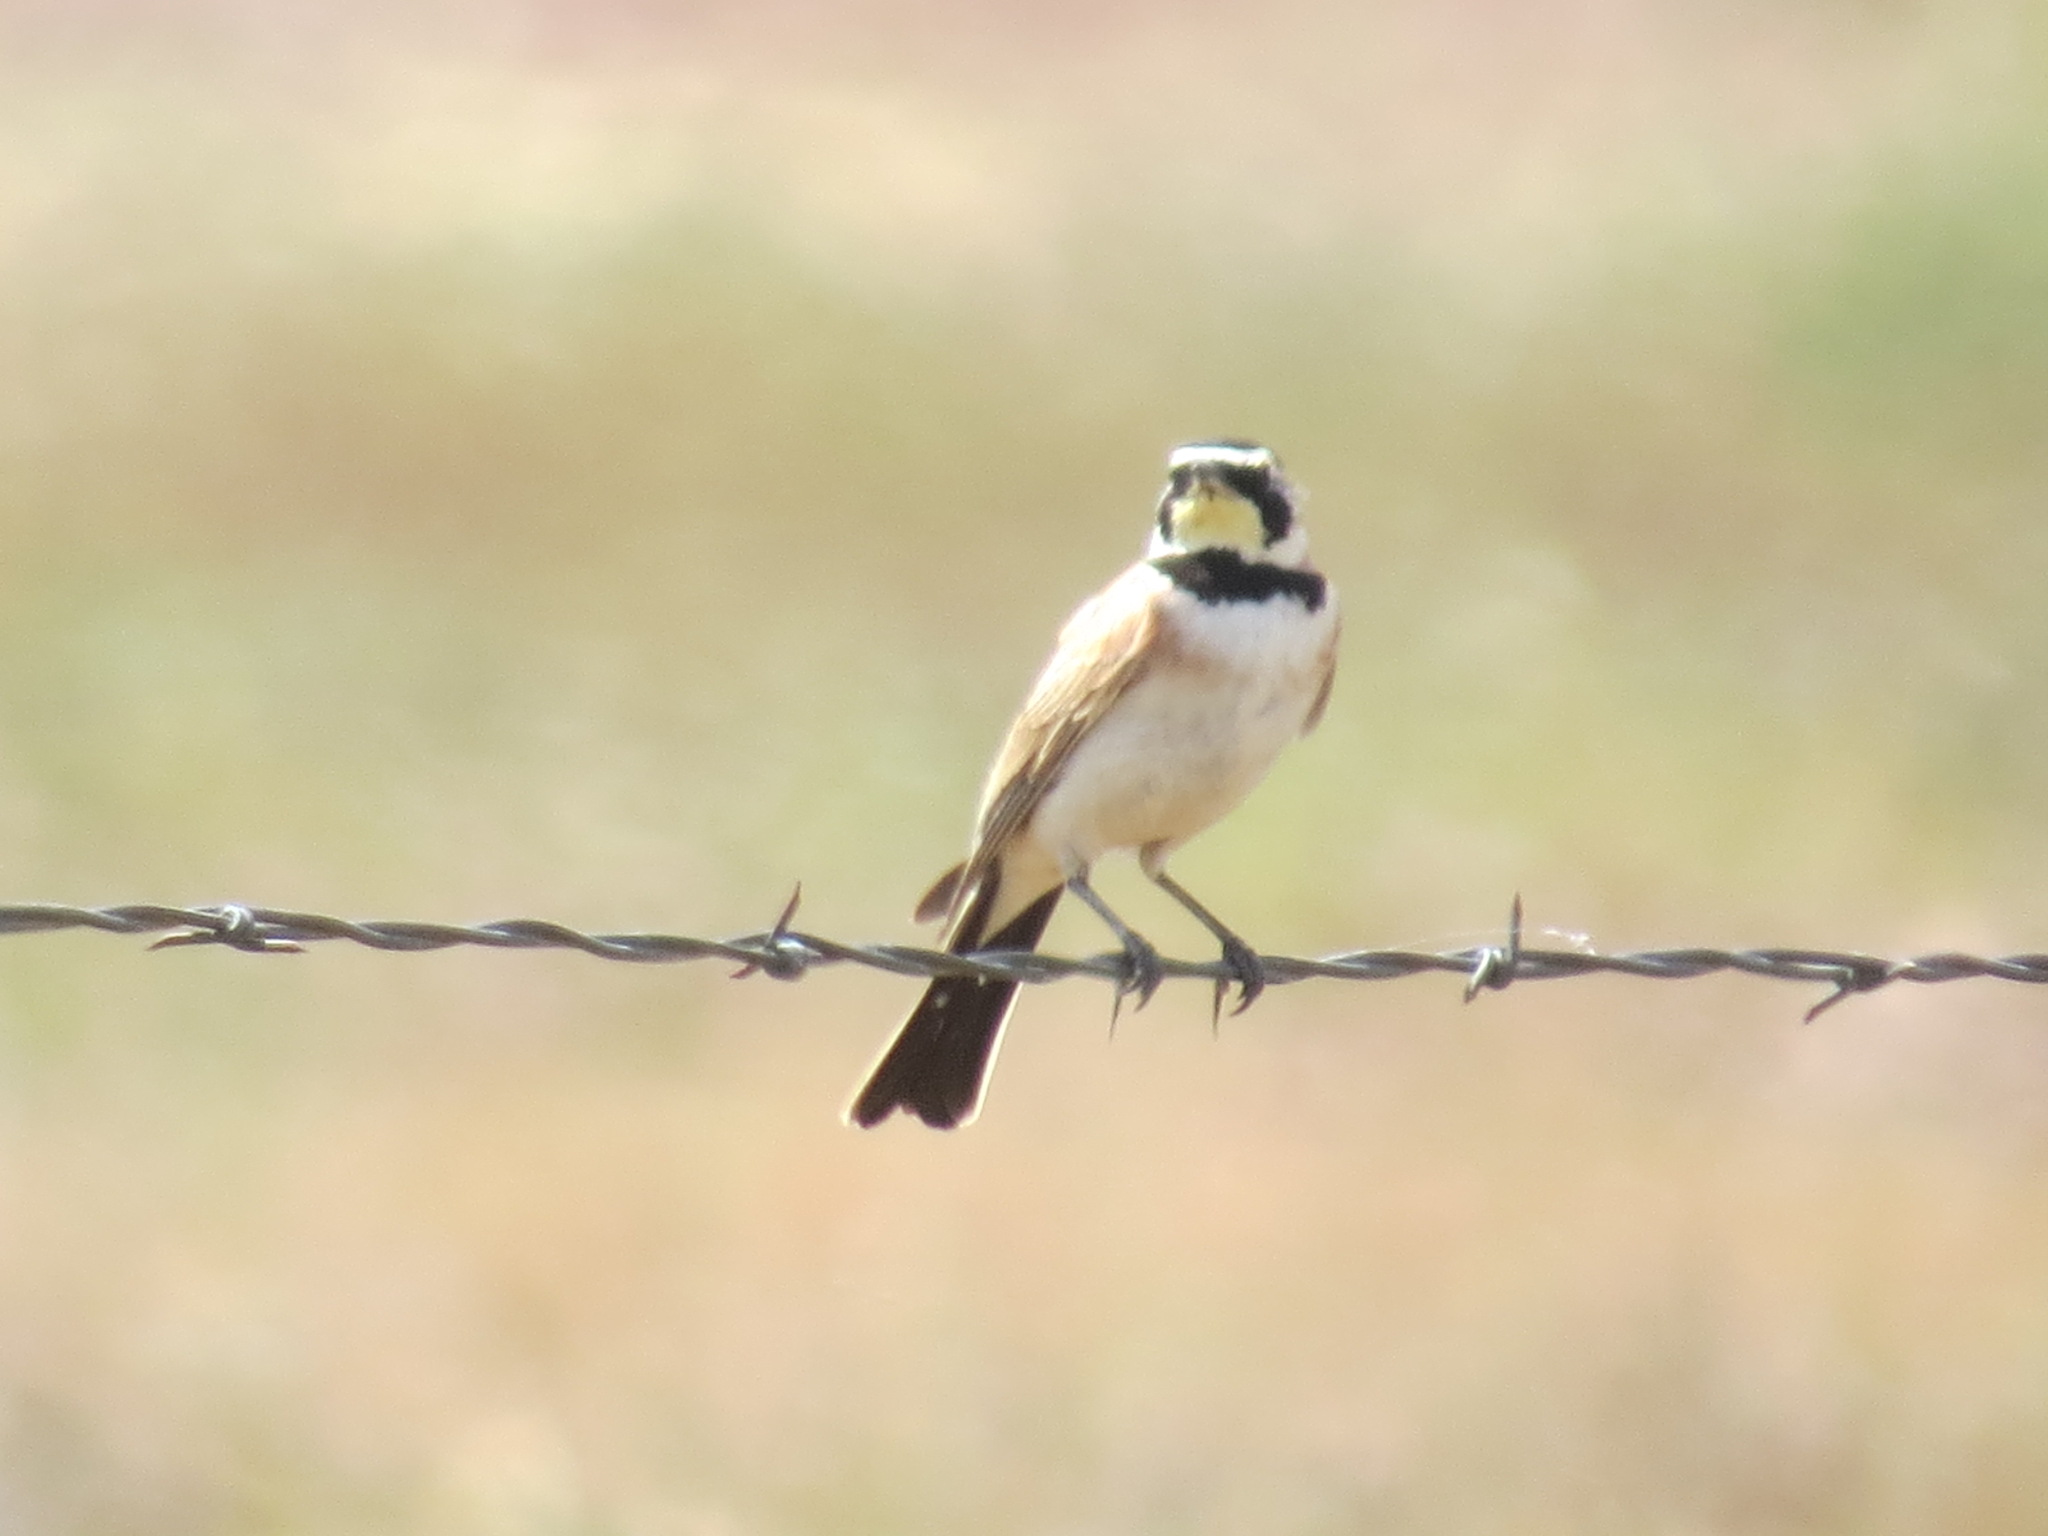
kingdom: Animalia
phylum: Chordata
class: Aves
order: Passeriformes
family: Alaudidae
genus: Eremophila
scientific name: Eremophila alpestris
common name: Horned lark
